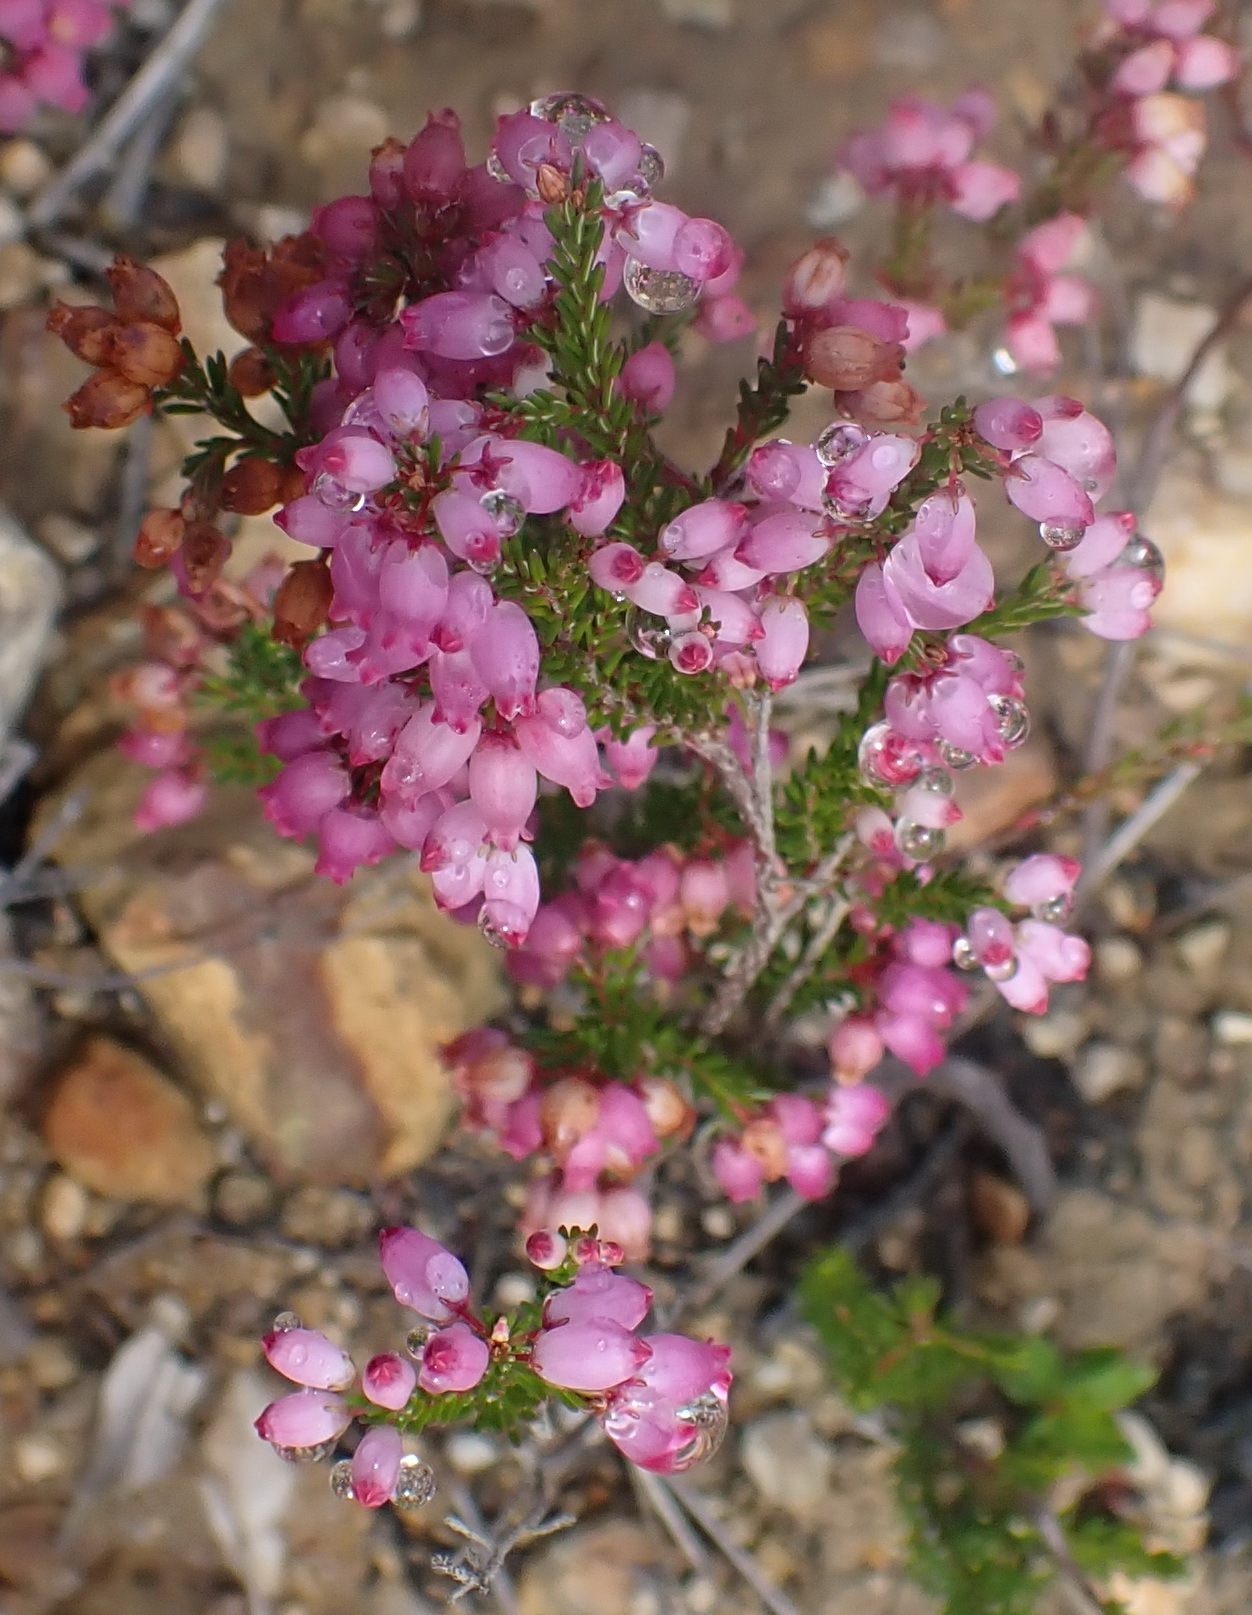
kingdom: Plantae
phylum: Tracheophyta
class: Magnoliopsida
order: Ericales
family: Ericaceae
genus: Erica
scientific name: Erica gracilis
